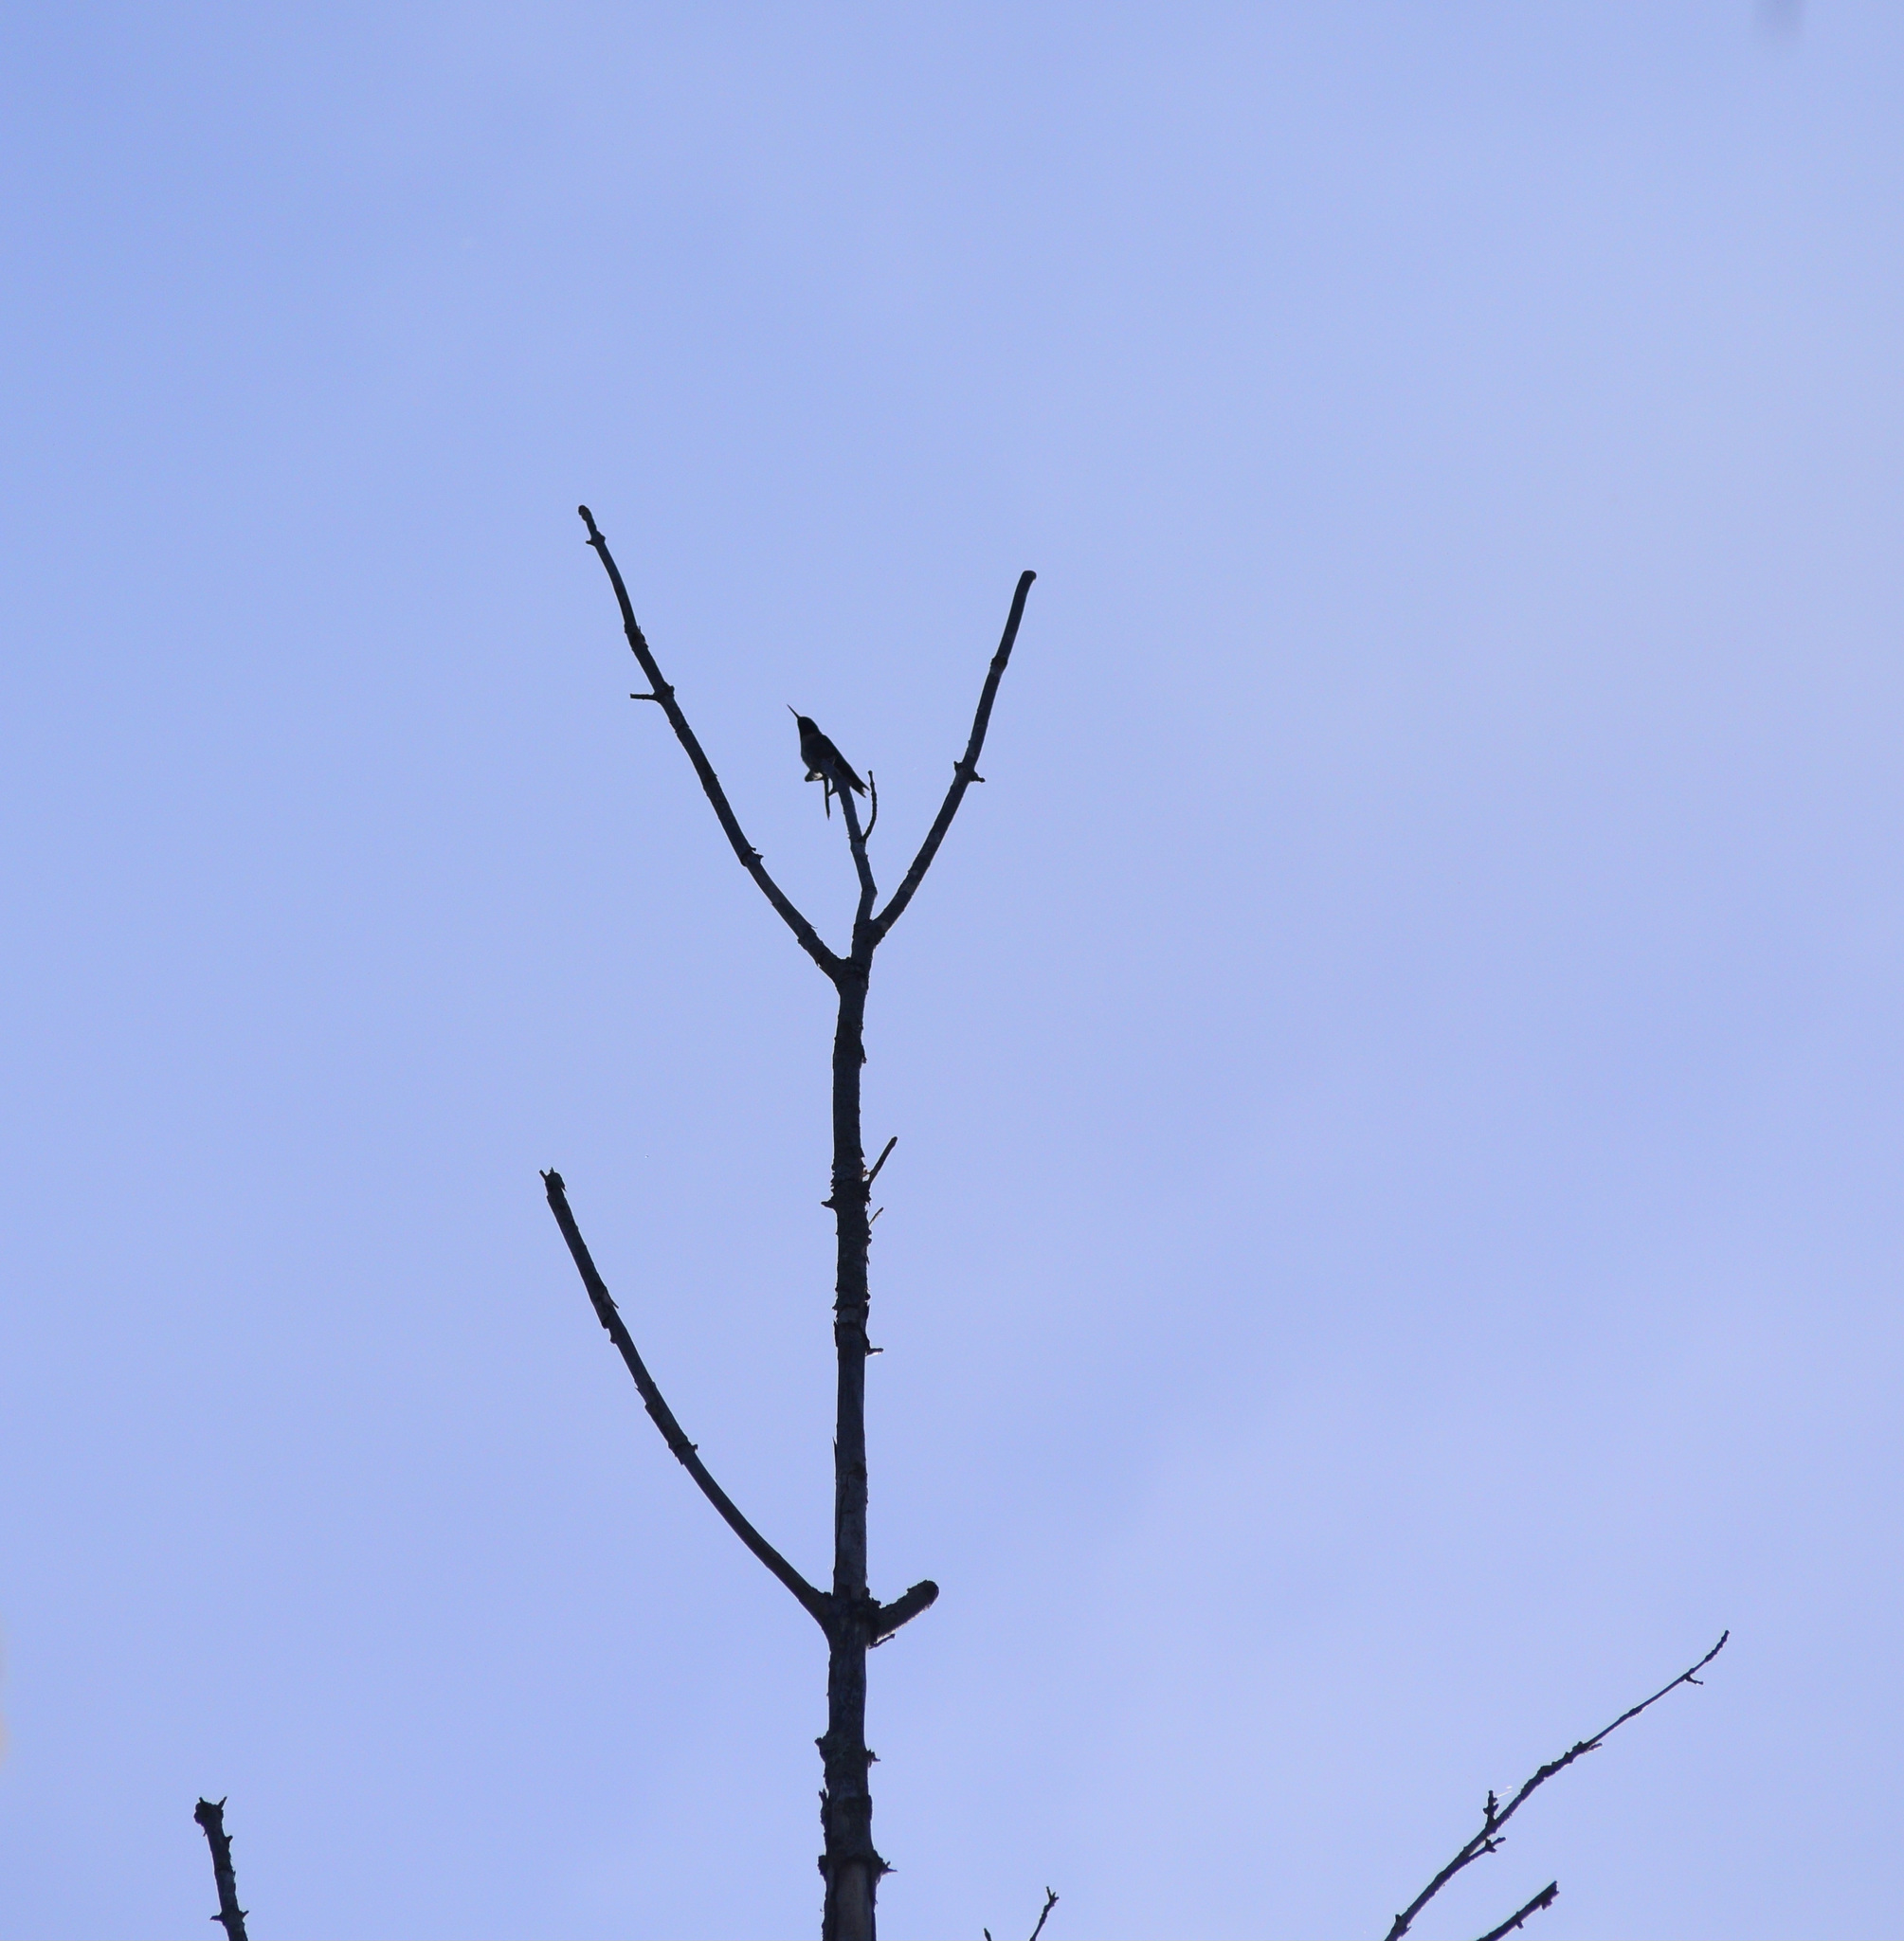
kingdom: Animalia
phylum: Chordata
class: Aves
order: Apodiformes
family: Trochilidae
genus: Archilochus
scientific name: Archilochus colubris
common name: Ruby-throated hummingbird
